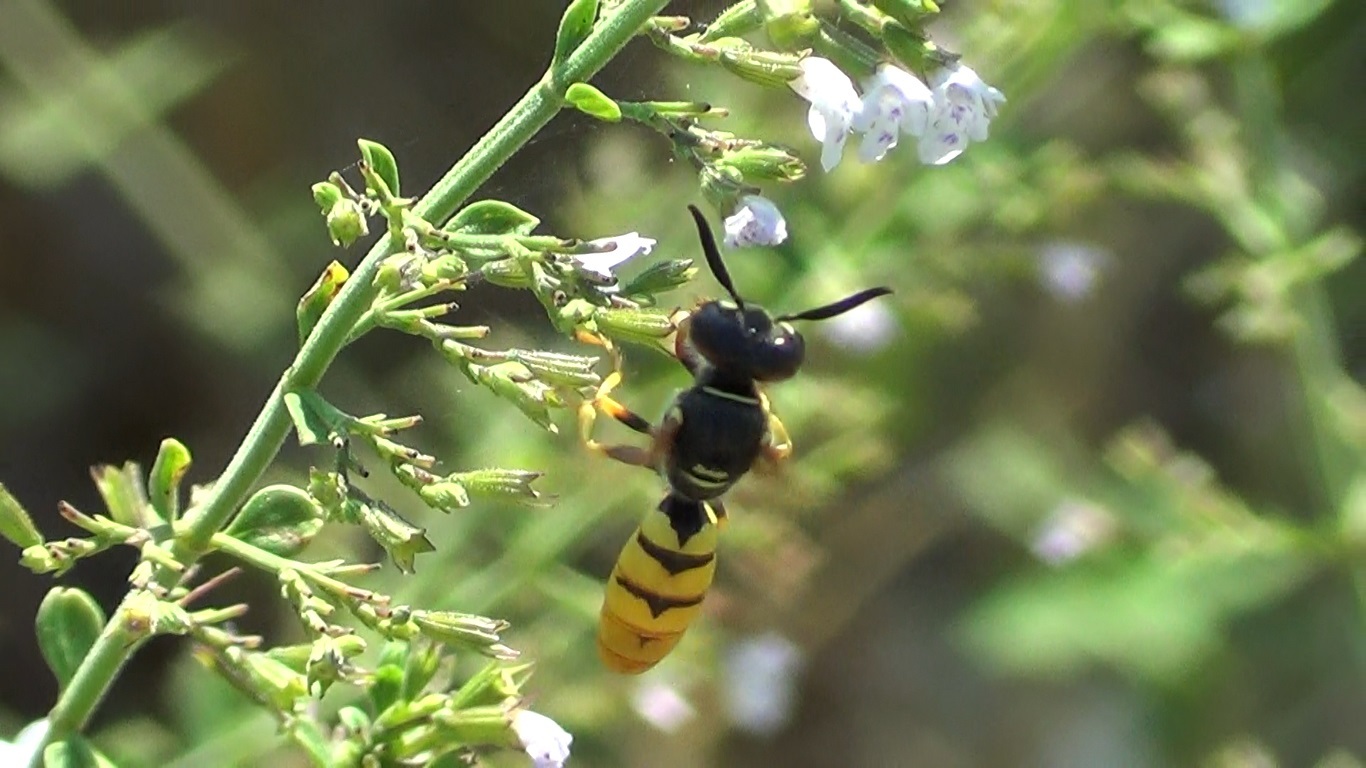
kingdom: Animalia
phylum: Arthropoda
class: Insecta
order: Hymenoptera
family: Crabronidae
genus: Philanthus
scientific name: Philanthus triangulum
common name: Bee wolf
